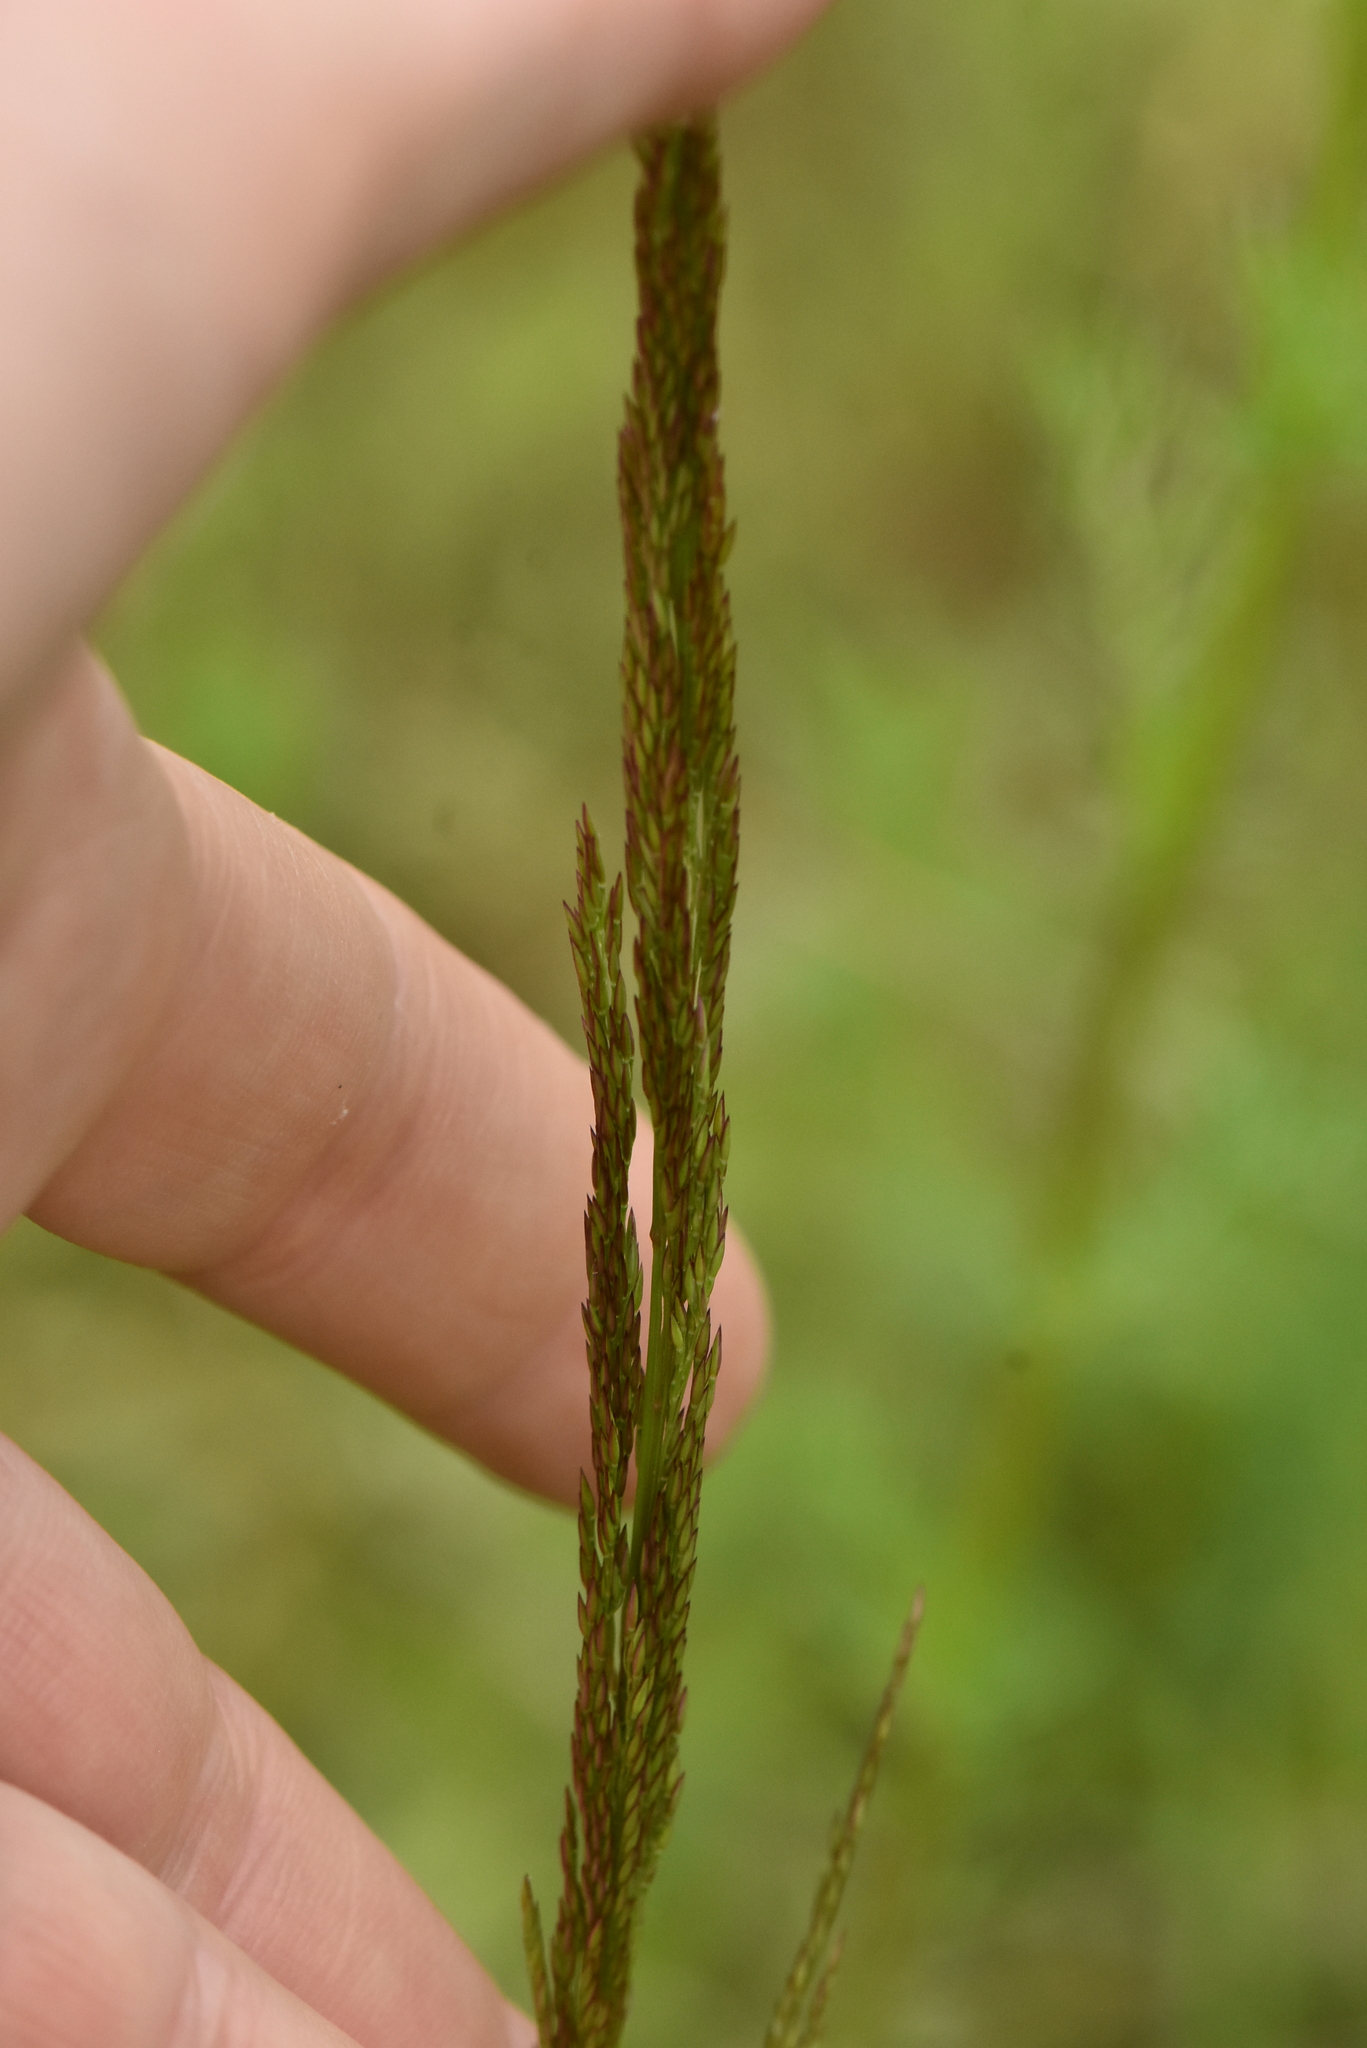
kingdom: Plantae
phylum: Tracheophyta
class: Liliopsida
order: Poales
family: Poaceae
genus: Agrostis
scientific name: Agrostis stolonifera
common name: Creeping bentgrass
